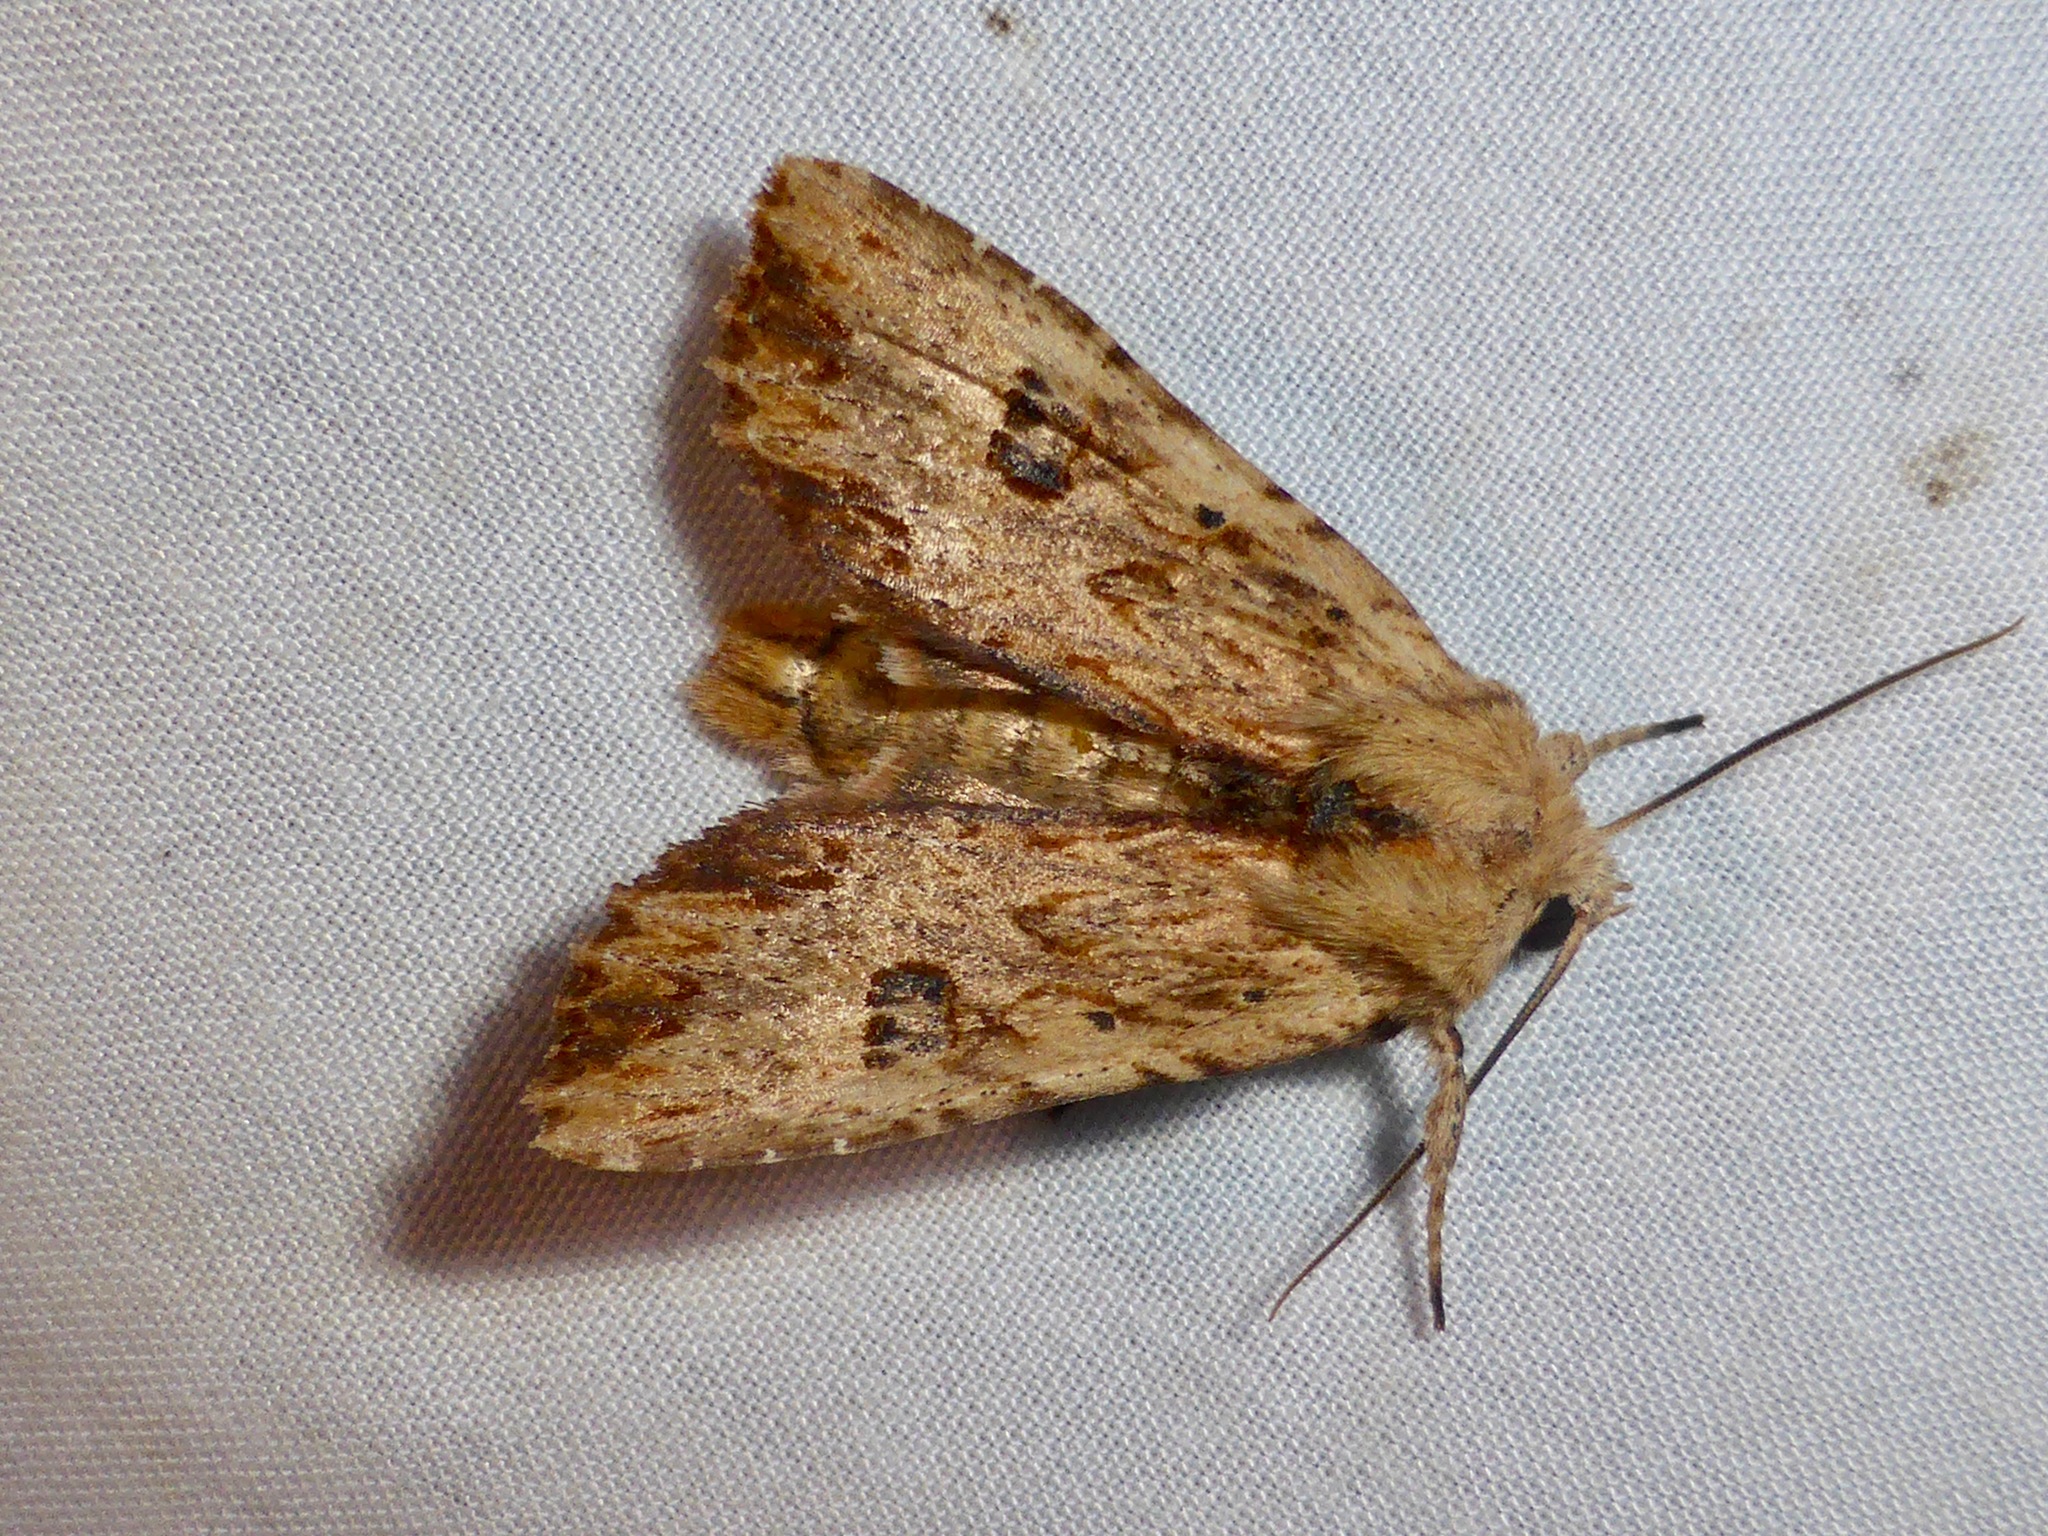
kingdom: Animalia
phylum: Arthropoda
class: Insecta
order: Lepidoptera
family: Noctuidae
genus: Ichneutica
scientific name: Ichneutica
